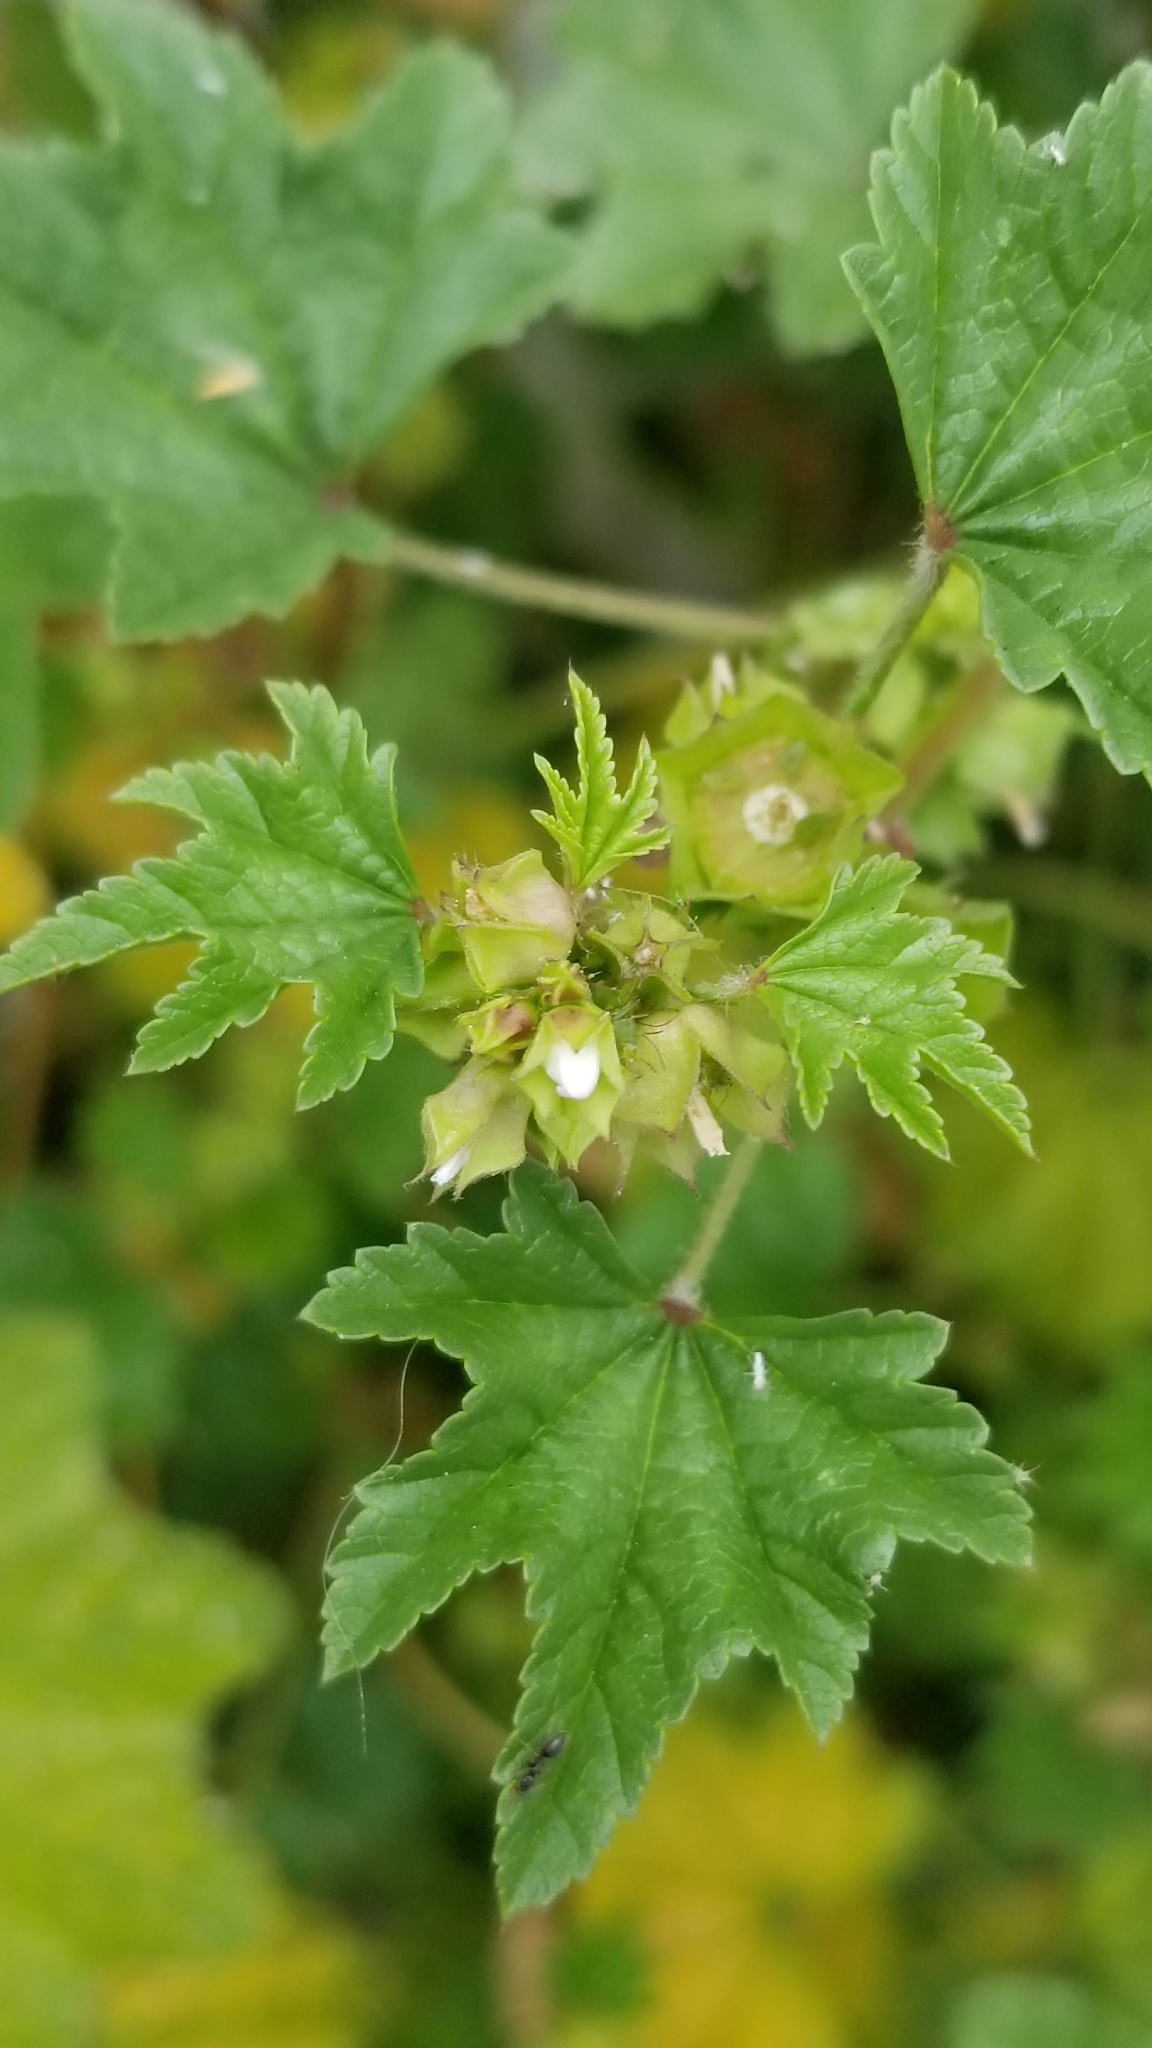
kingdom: Plantae
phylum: Tracheophyta
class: Magnoliopsida
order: Malvales
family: Malvaceae
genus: Malva
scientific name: Malva parviflora
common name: Least mallow
